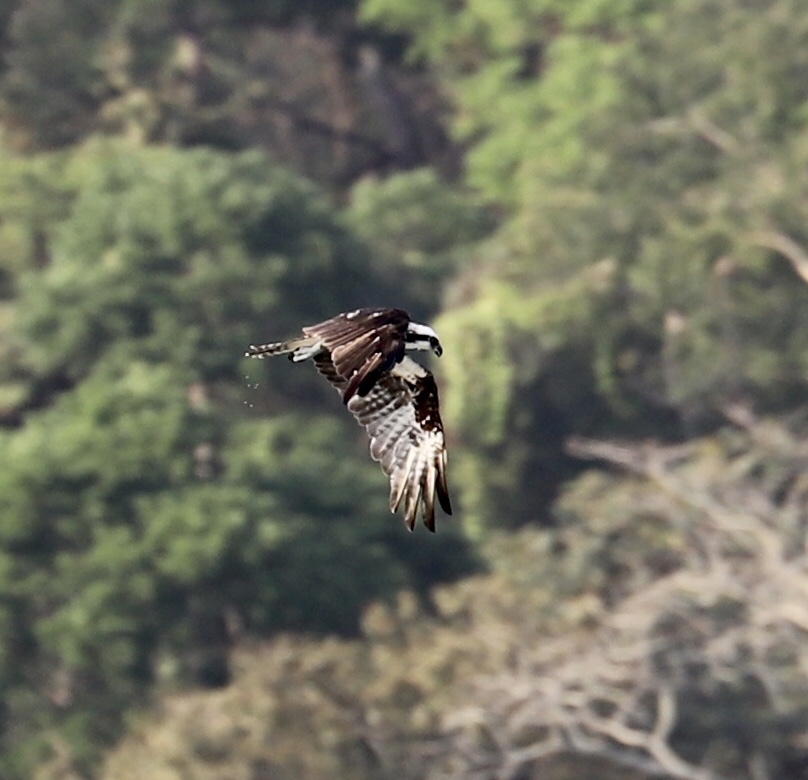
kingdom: Animalia
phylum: Chordata
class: Aves
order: Accipitriformes
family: Pandionidae
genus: Pandion
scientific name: Pandion haliaetus
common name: Osprey
